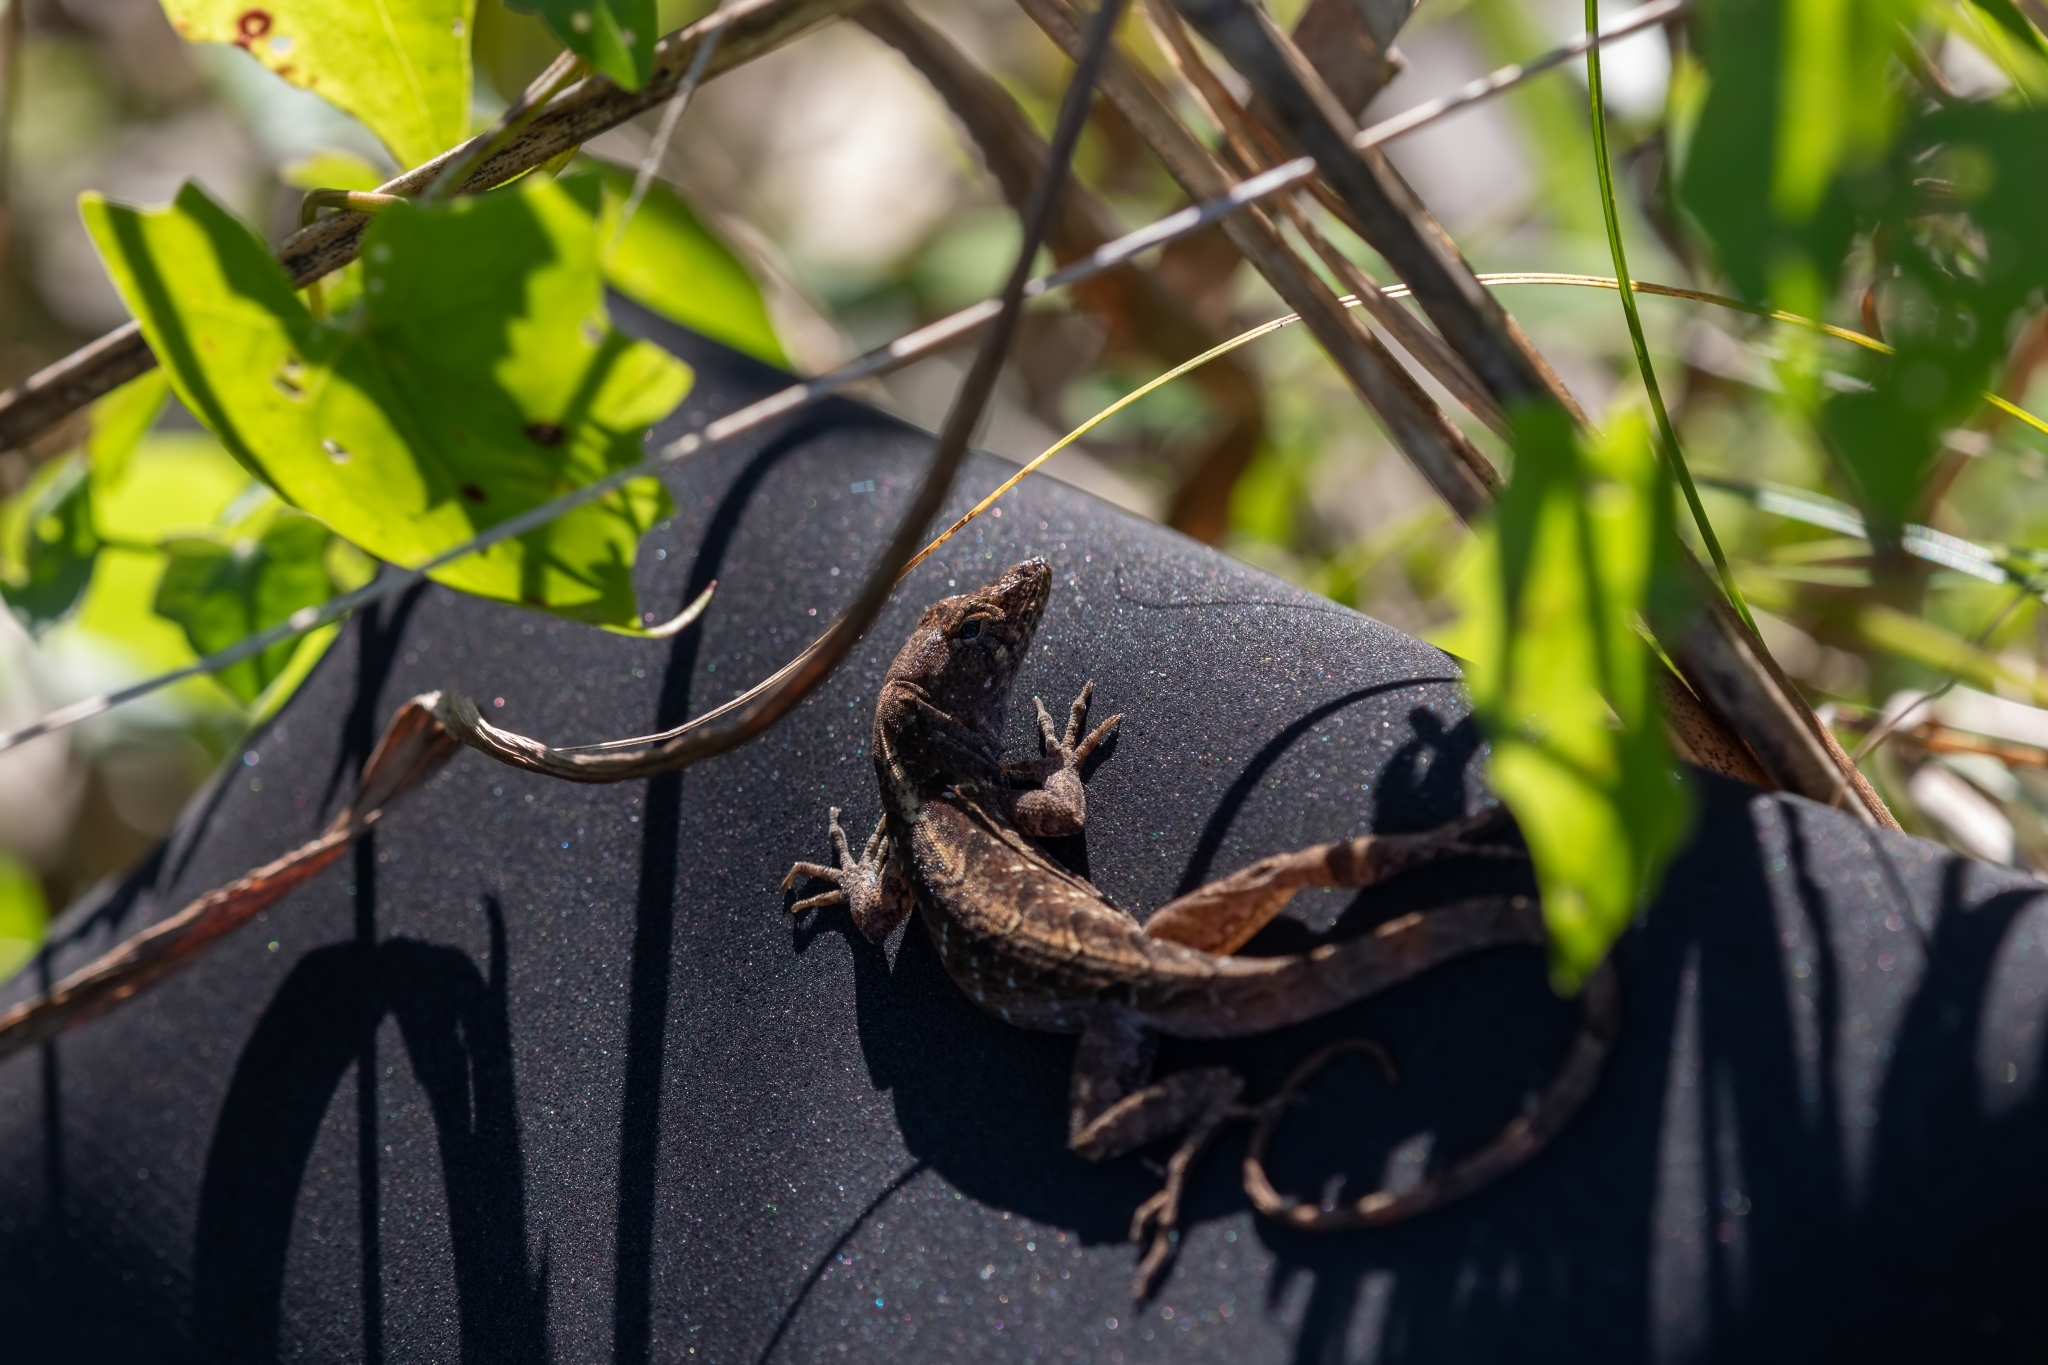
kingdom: Animalia
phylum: Chordata
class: Squamata
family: Dactyloidae
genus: Anolis
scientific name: Anolis sagrei
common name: Brown anole
